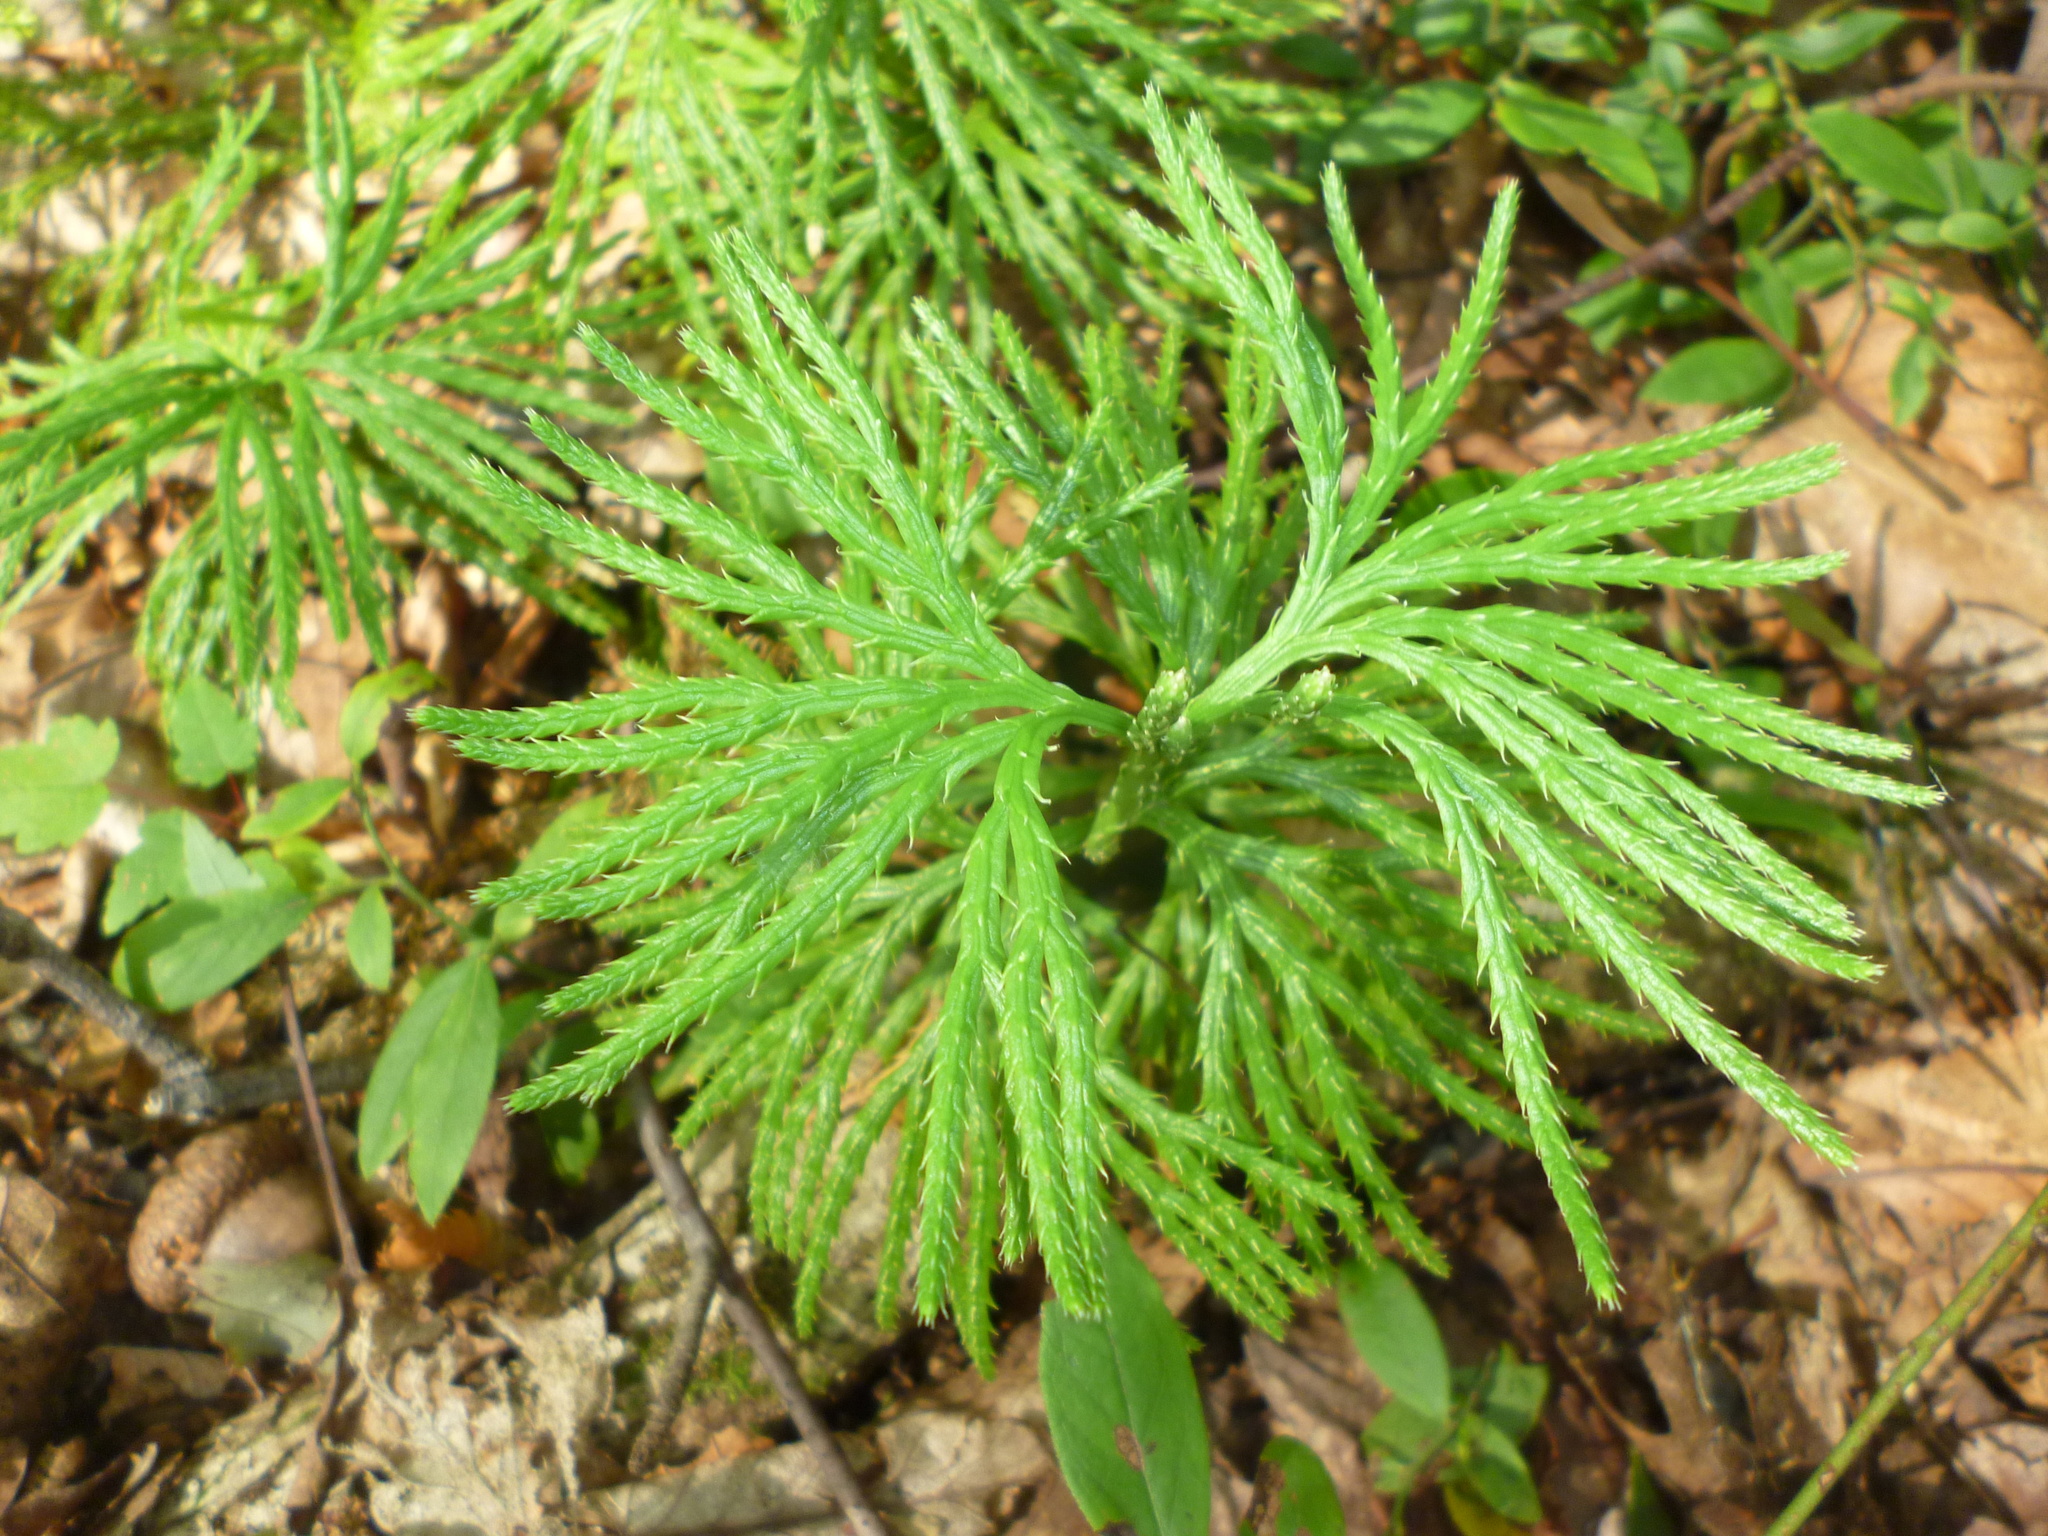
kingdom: Plantae
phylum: Tracheophyta
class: Lycopodiopsida
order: Lycopodiales
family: Lycopodiaceae
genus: Diphasiastrum
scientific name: Diphasiastrum digitatum
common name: Southern running-pine
